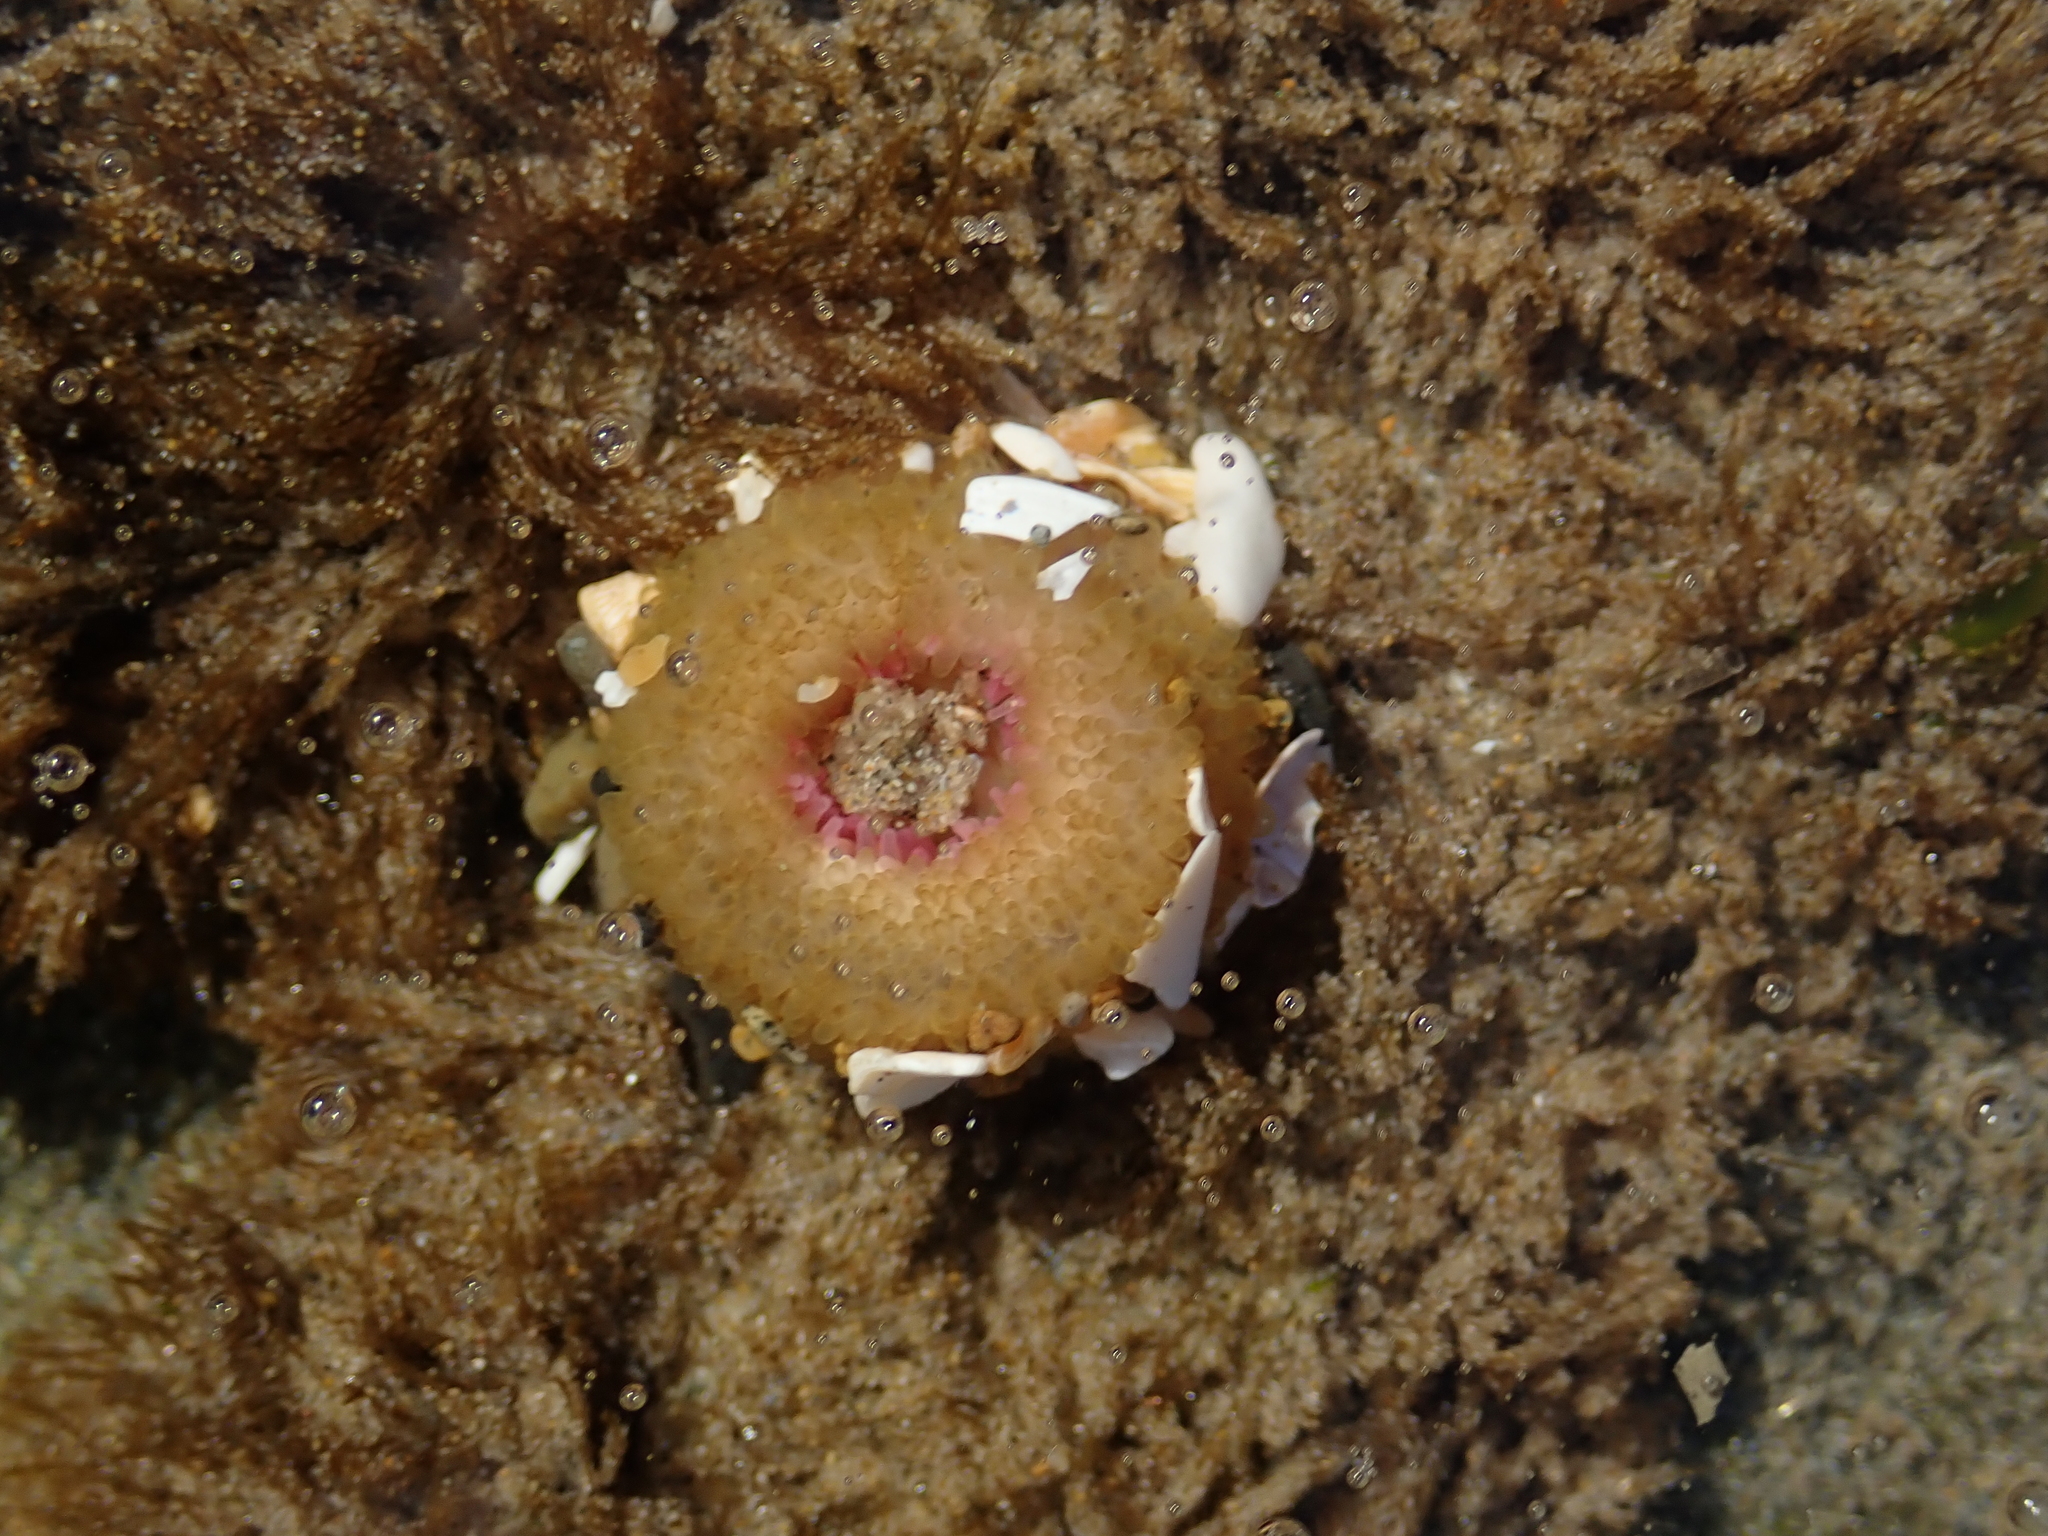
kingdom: Animalia
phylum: Cnidaria
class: Anthozoa
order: Actiniaria
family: Actiniidae
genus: Anthopleura
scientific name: Anthopleura elegantissima
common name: Clonal anemone
